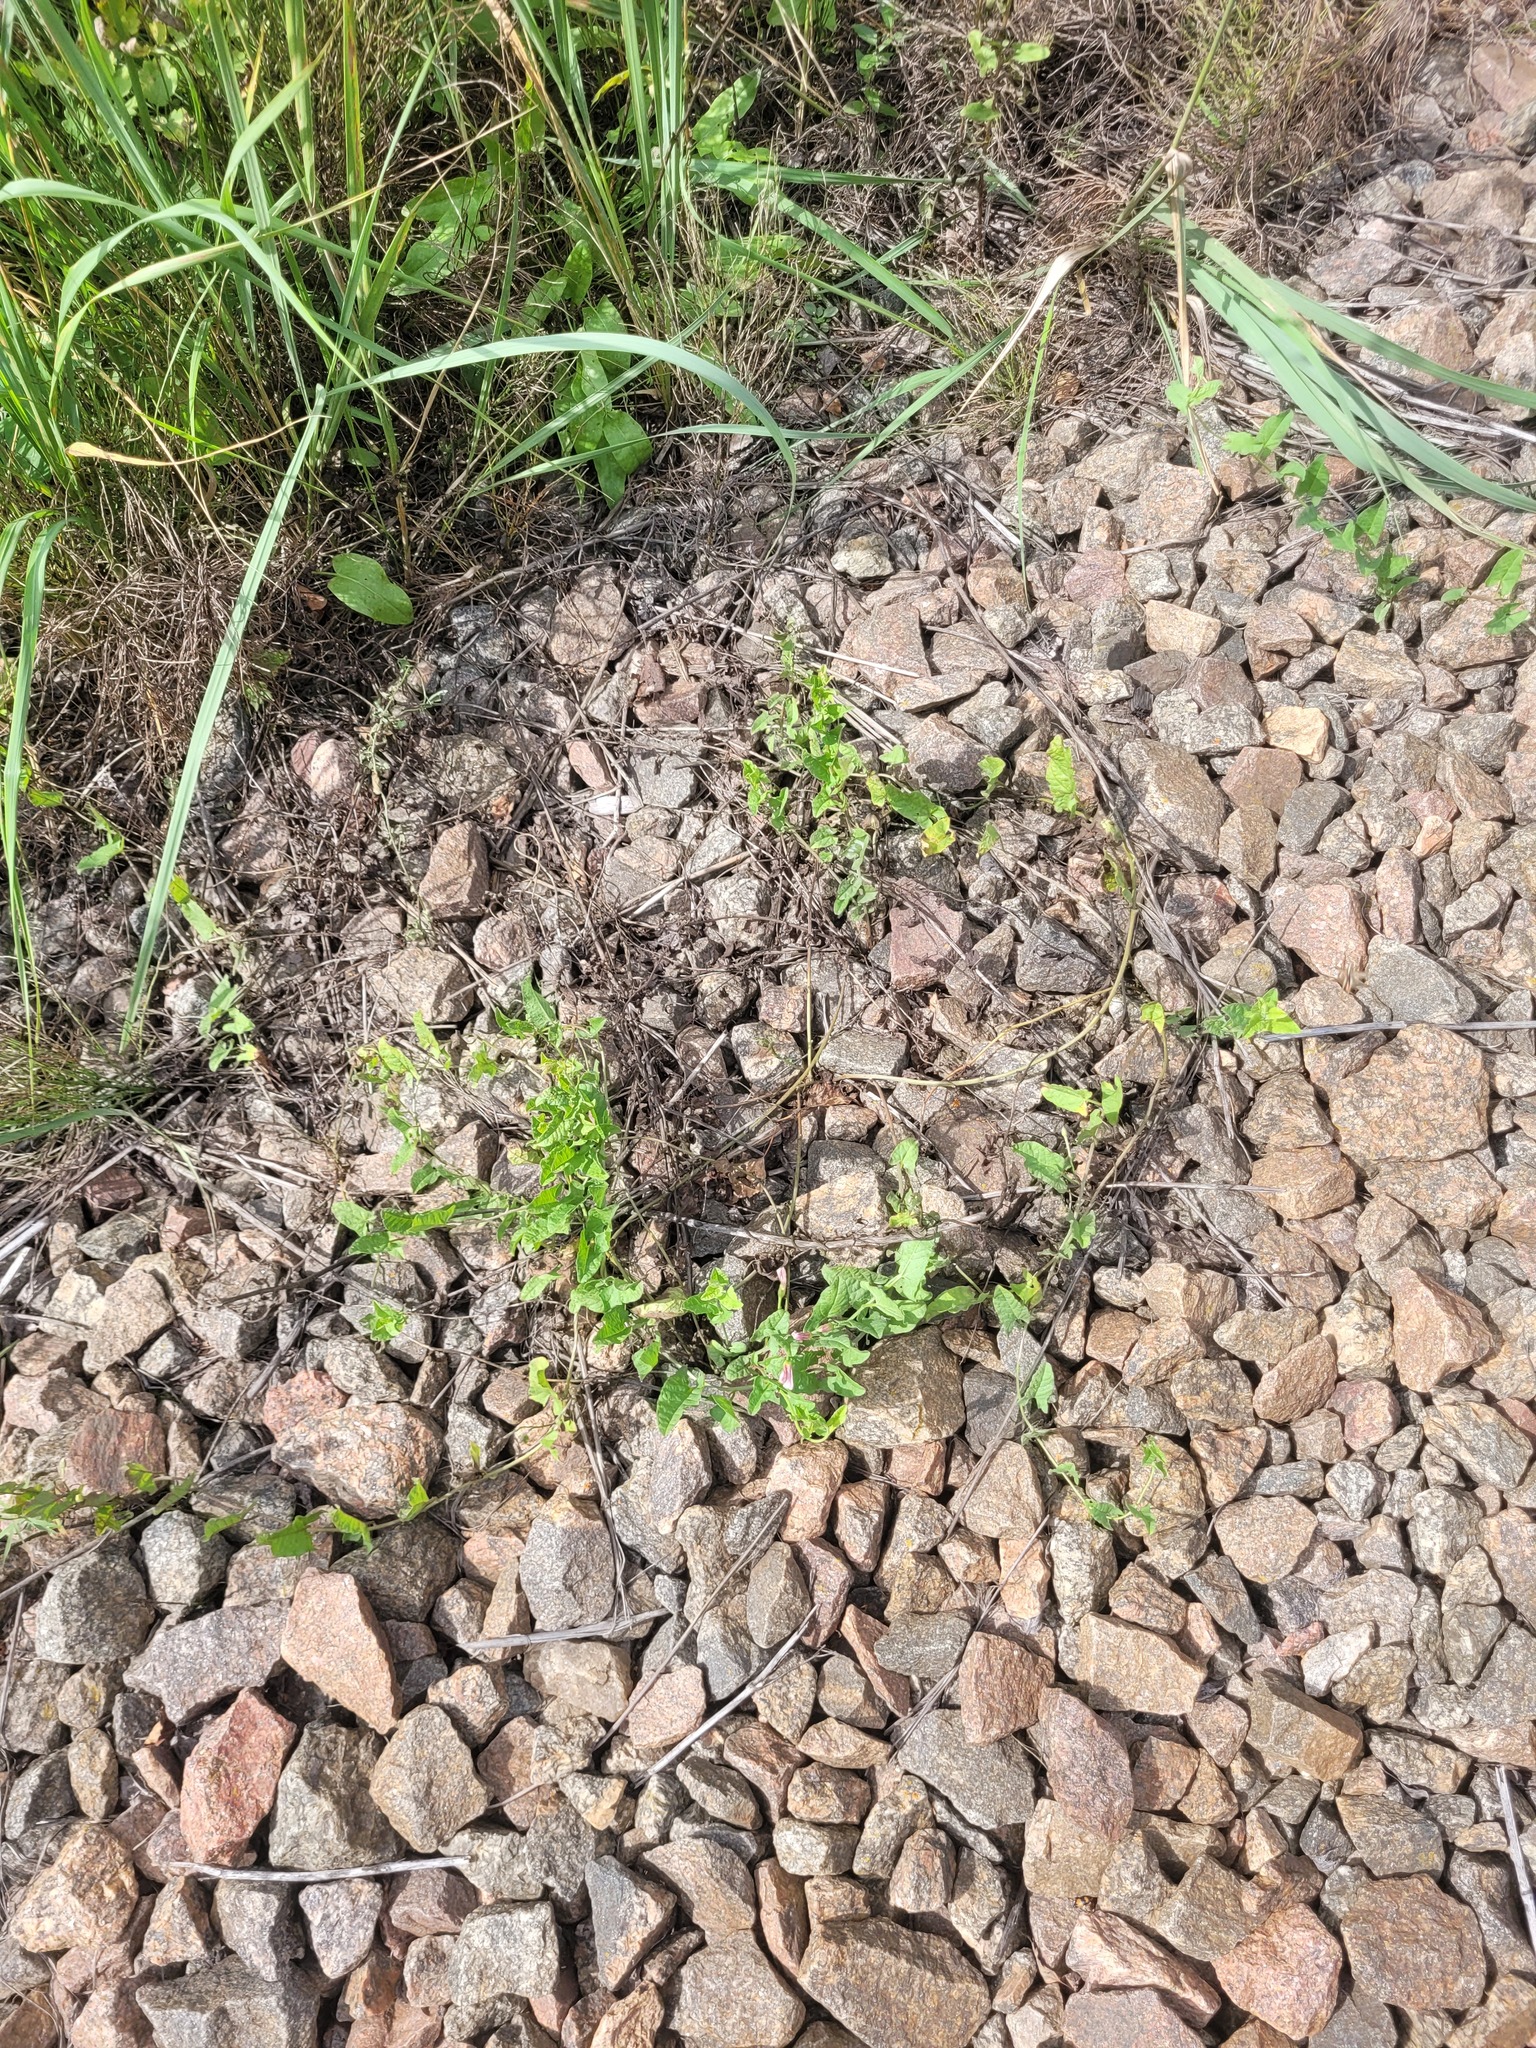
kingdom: Plantae
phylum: Tracheophyta
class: Magnoliopsida
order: Solanales
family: Convolvulaceae
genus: Convolvulus
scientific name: Convolvulus arvensis
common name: Field bindweed
